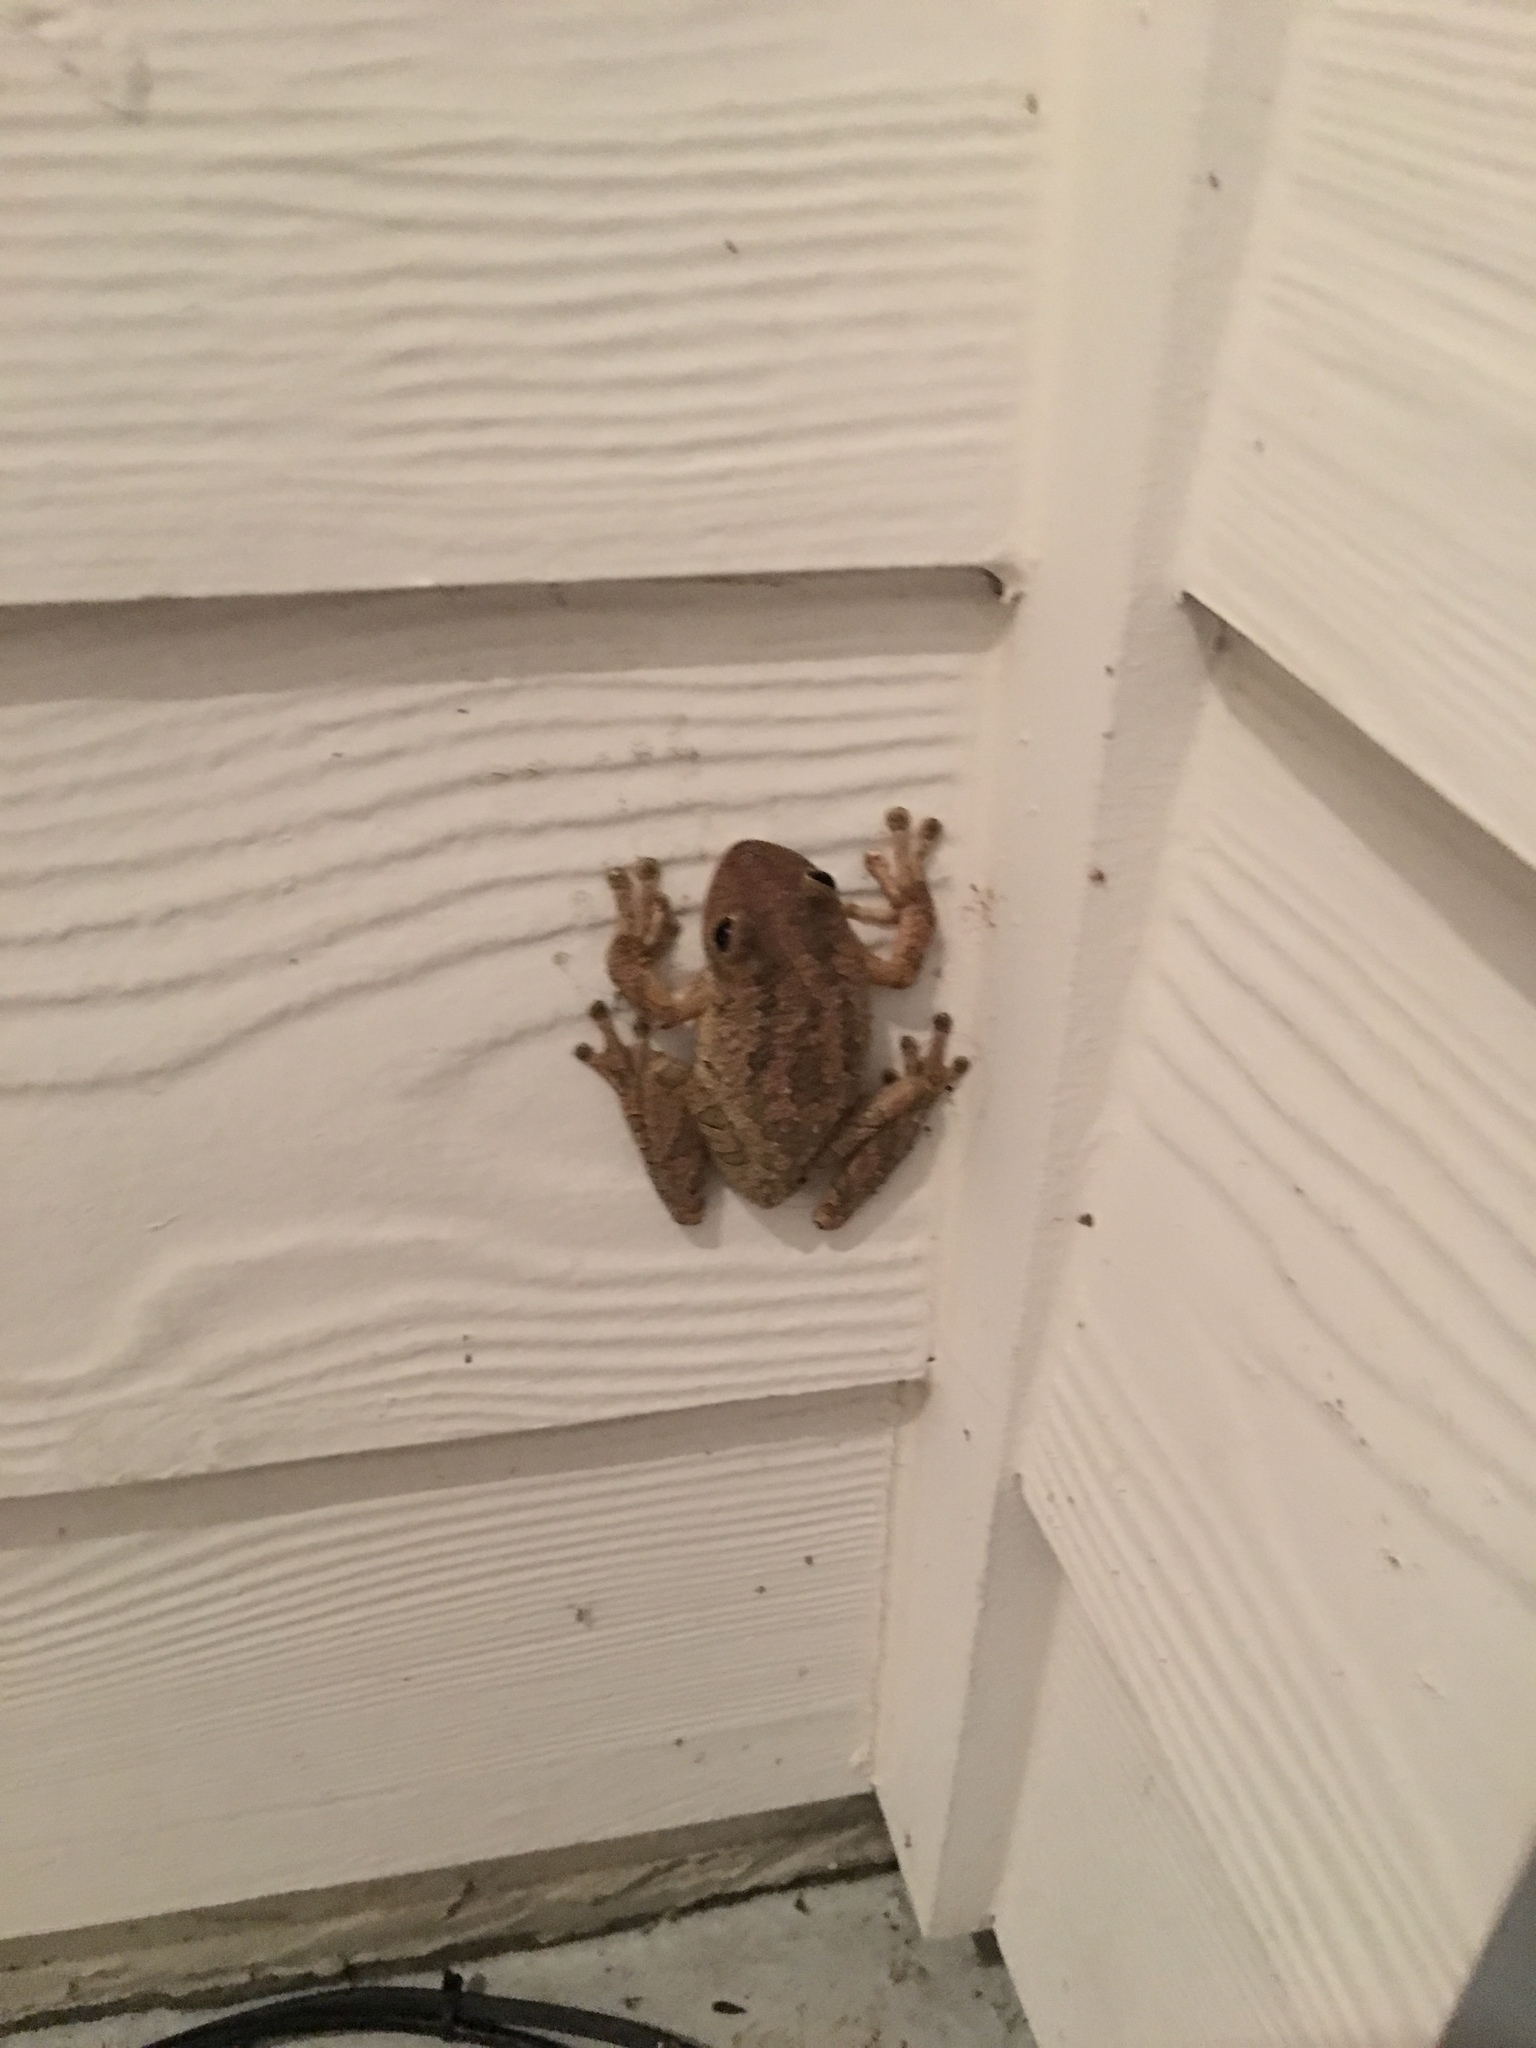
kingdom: Animalia
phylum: Chordata
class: Amphibia
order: Anura
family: Hylidae
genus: Osteopilus
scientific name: Osteopilus septentrionalis
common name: Cuban treefrog
